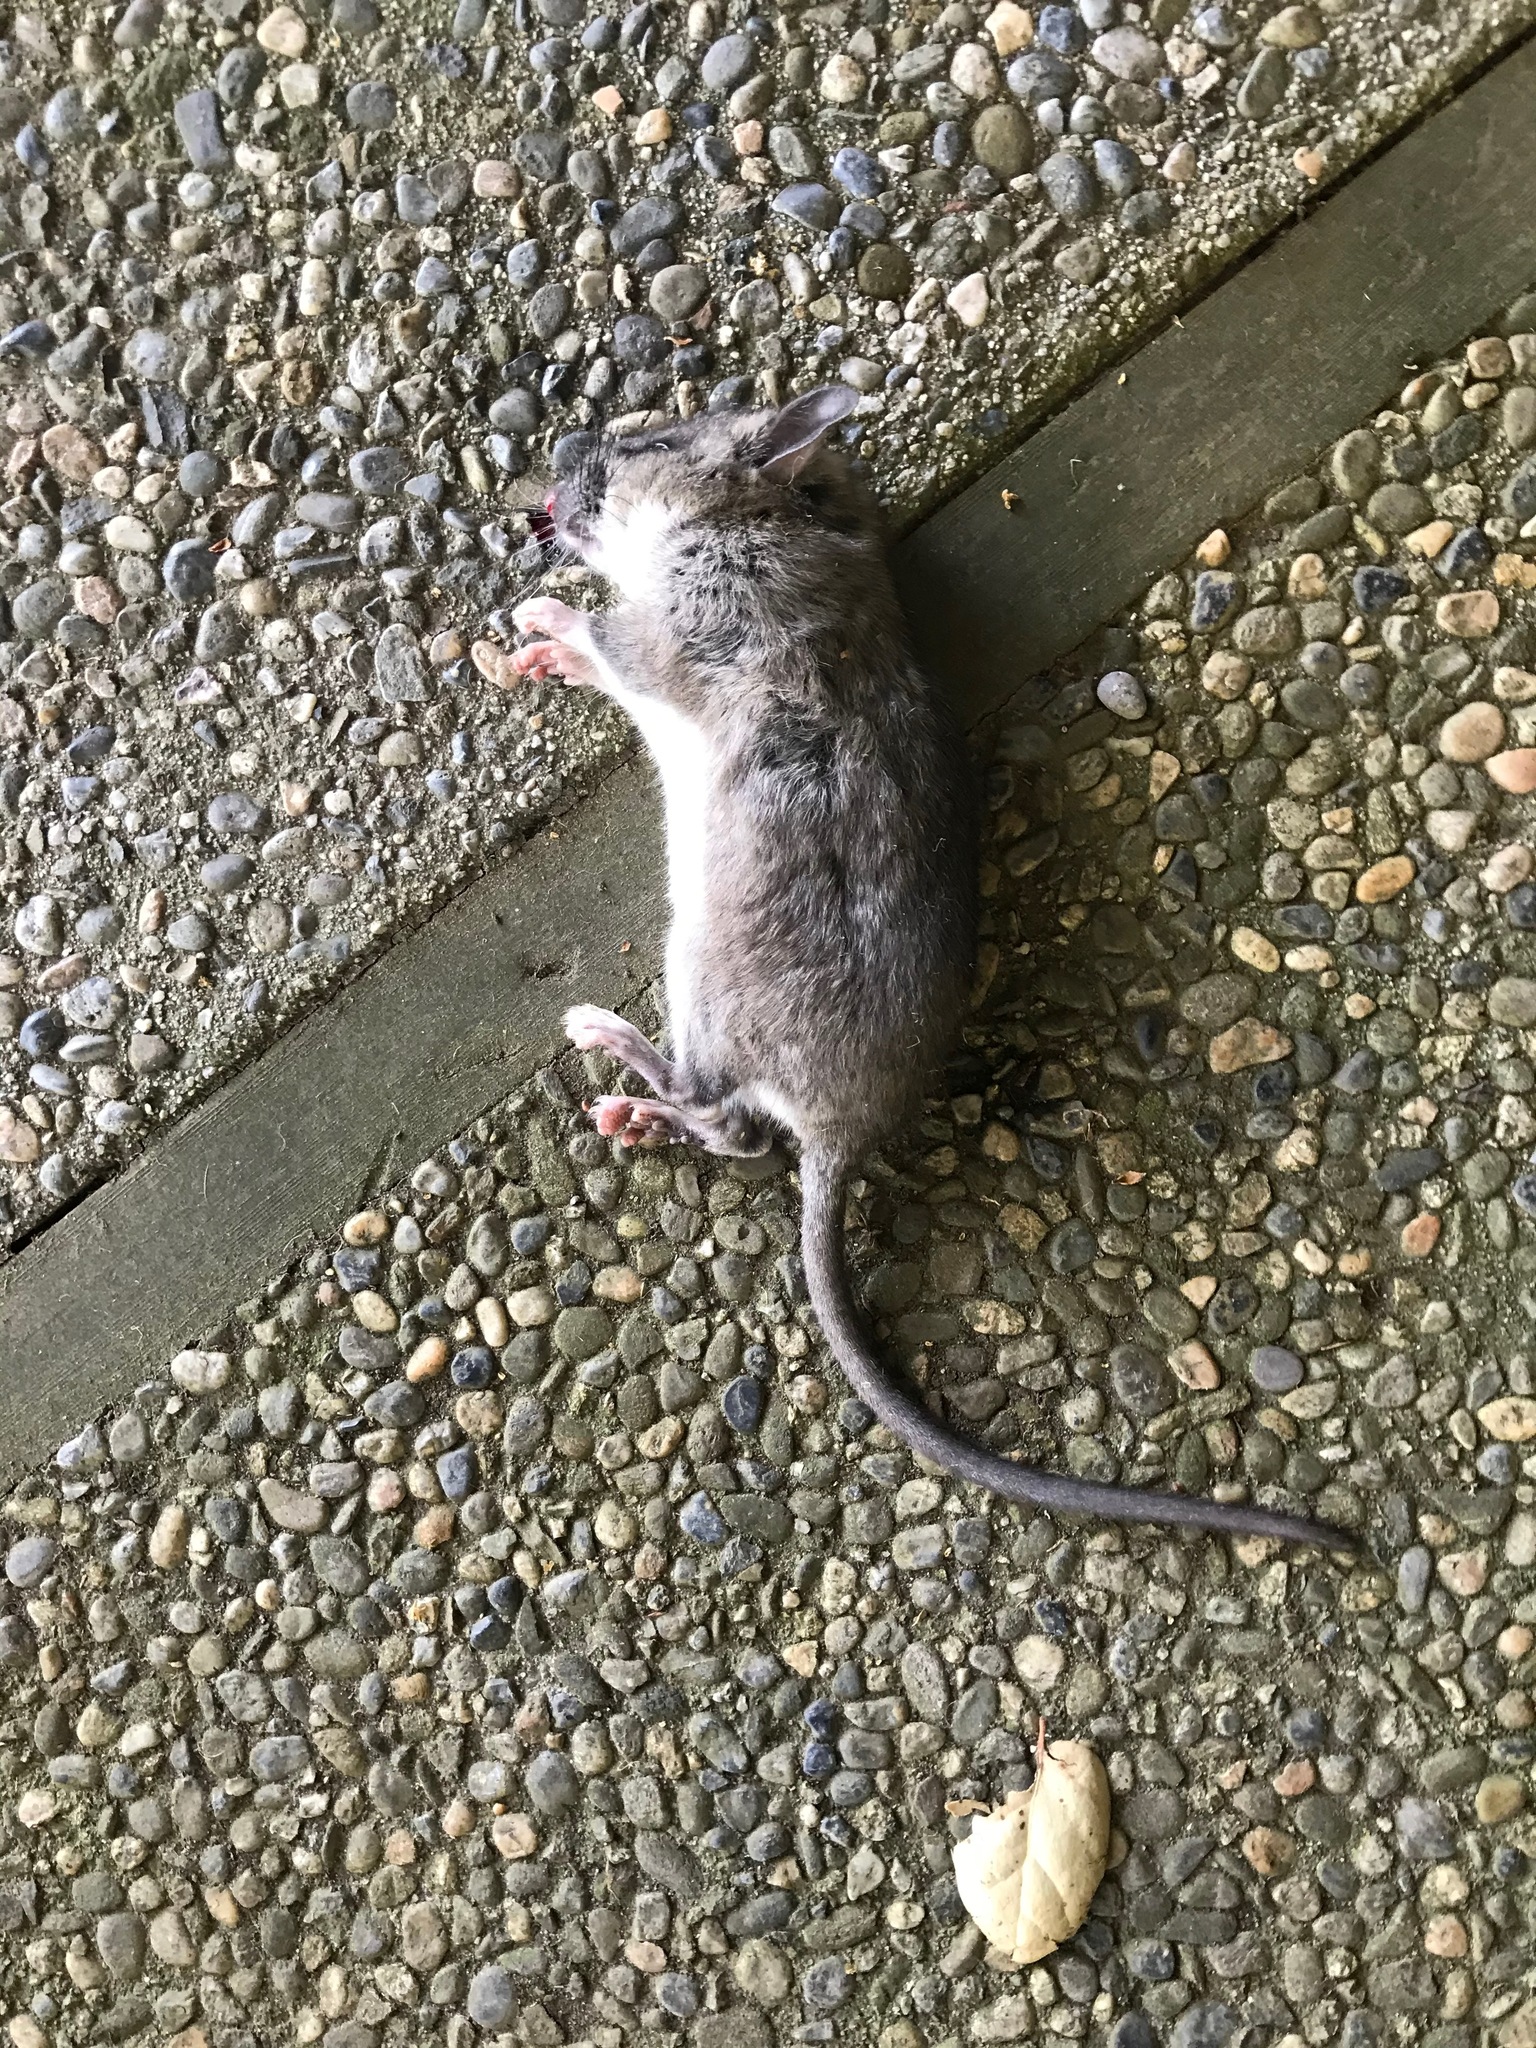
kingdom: Animalia
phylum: Chordata
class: Mammalia
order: Rodentia
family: Cricetidae
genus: Neotoma
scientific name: Neotoma fuscipes
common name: Dusky-footed woodrat
